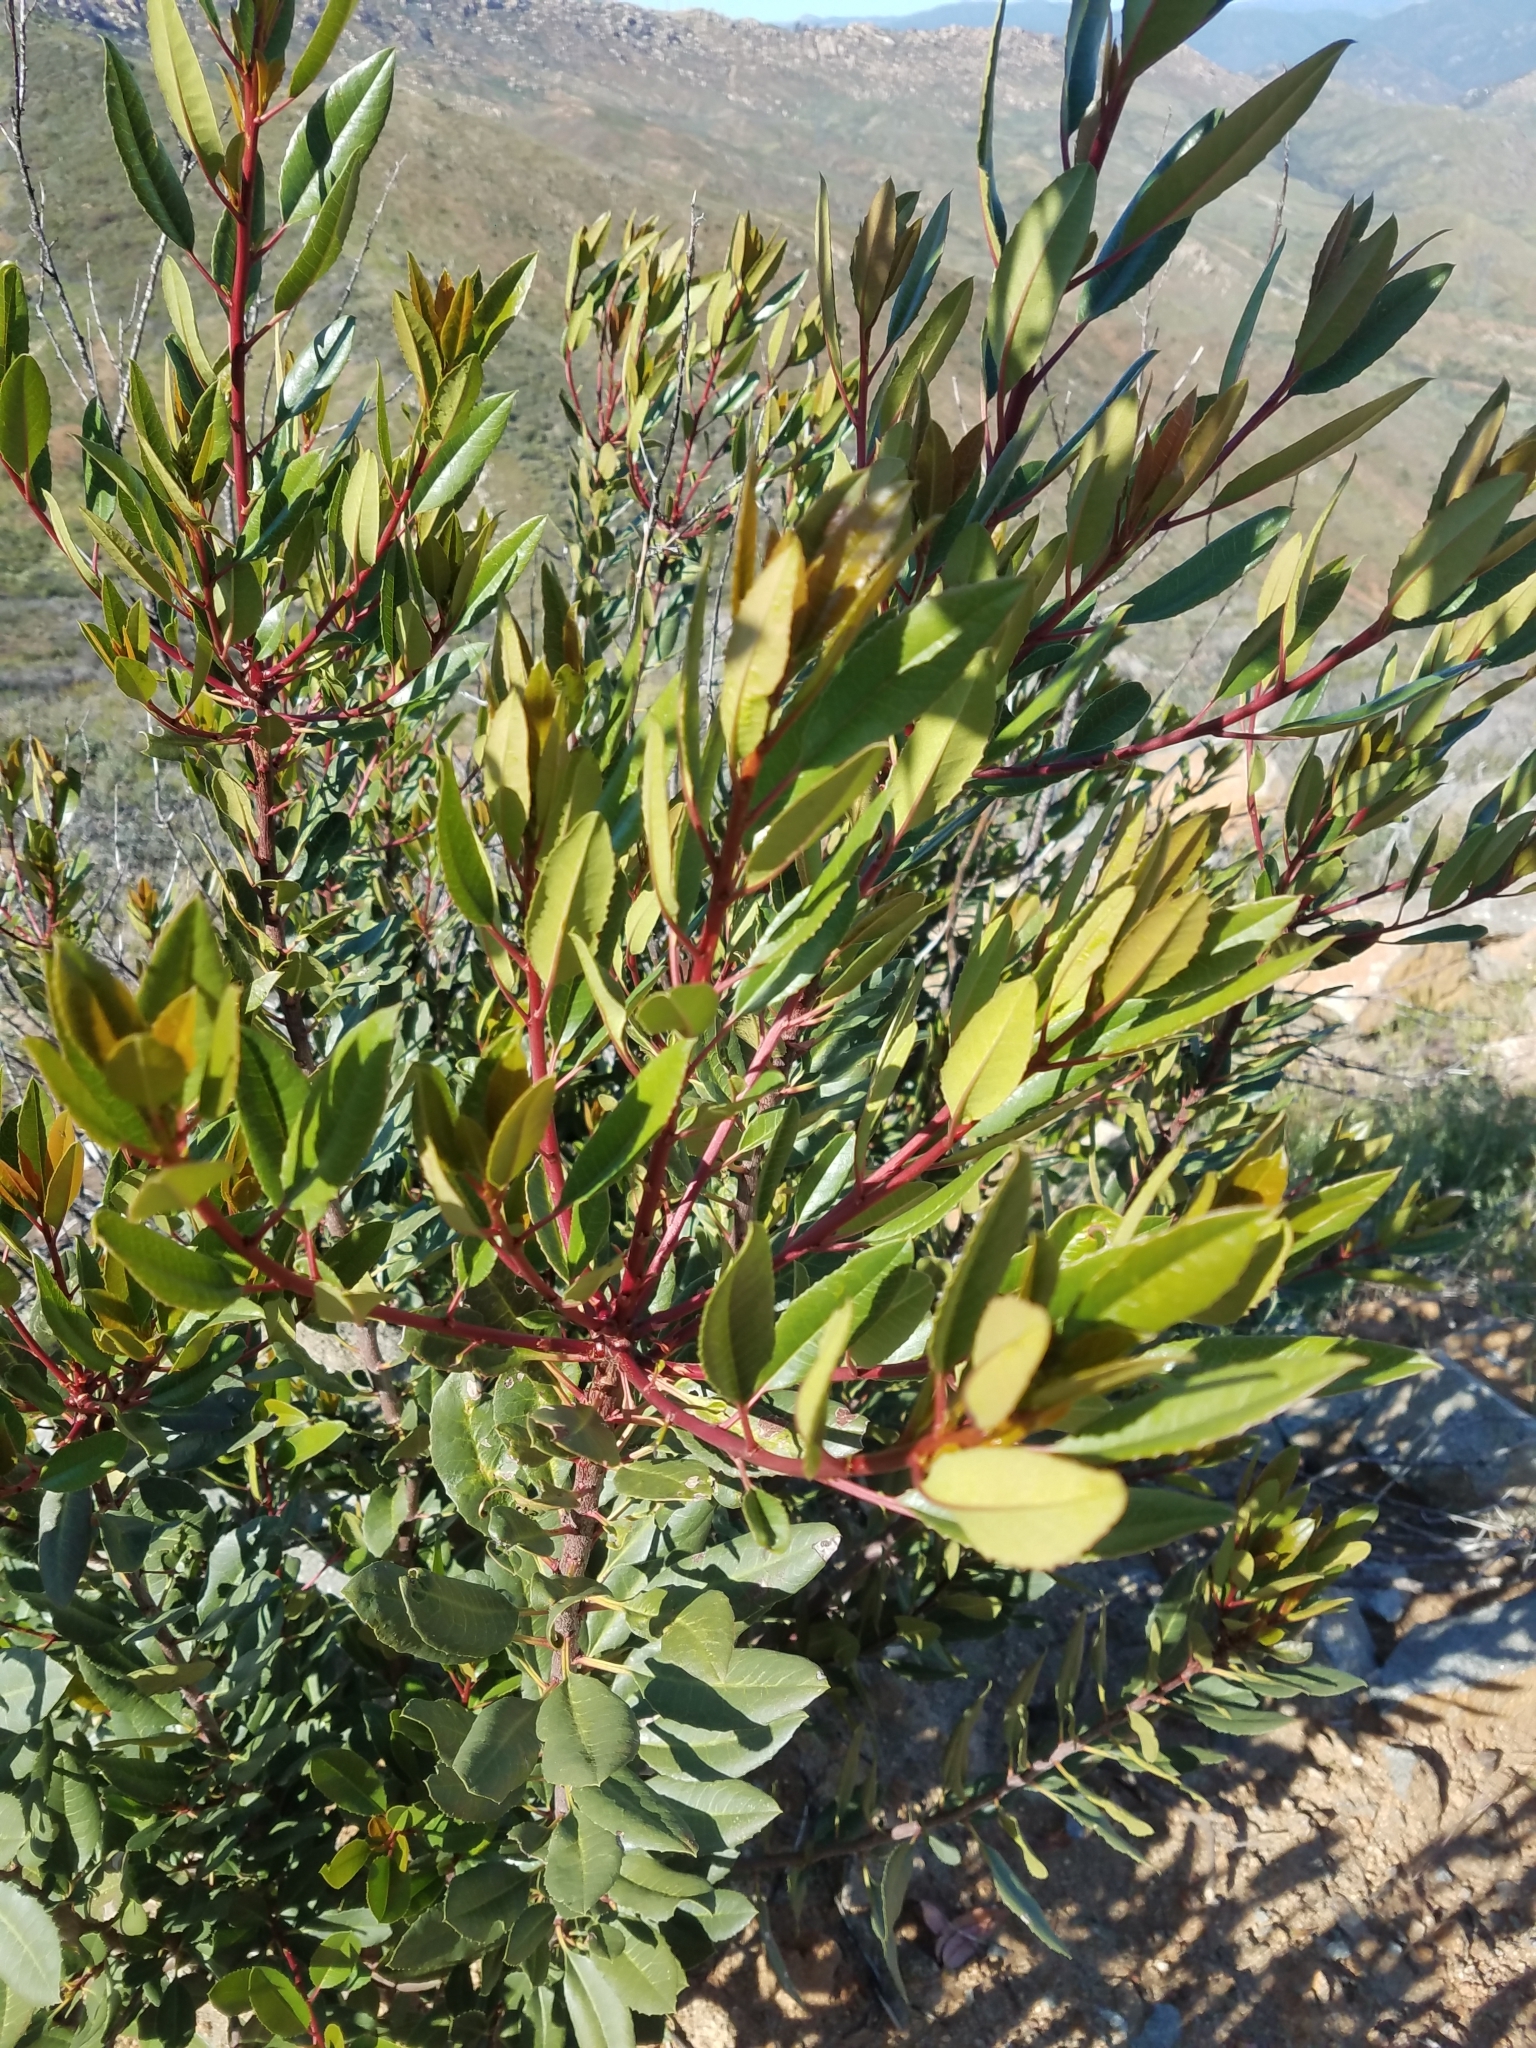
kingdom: Plantae
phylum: Tracheophyta
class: Magnoliopsida
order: Rosales
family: Rosaceae
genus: Heteromeles
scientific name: Heteromeles arbutifolia
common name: California-holly
